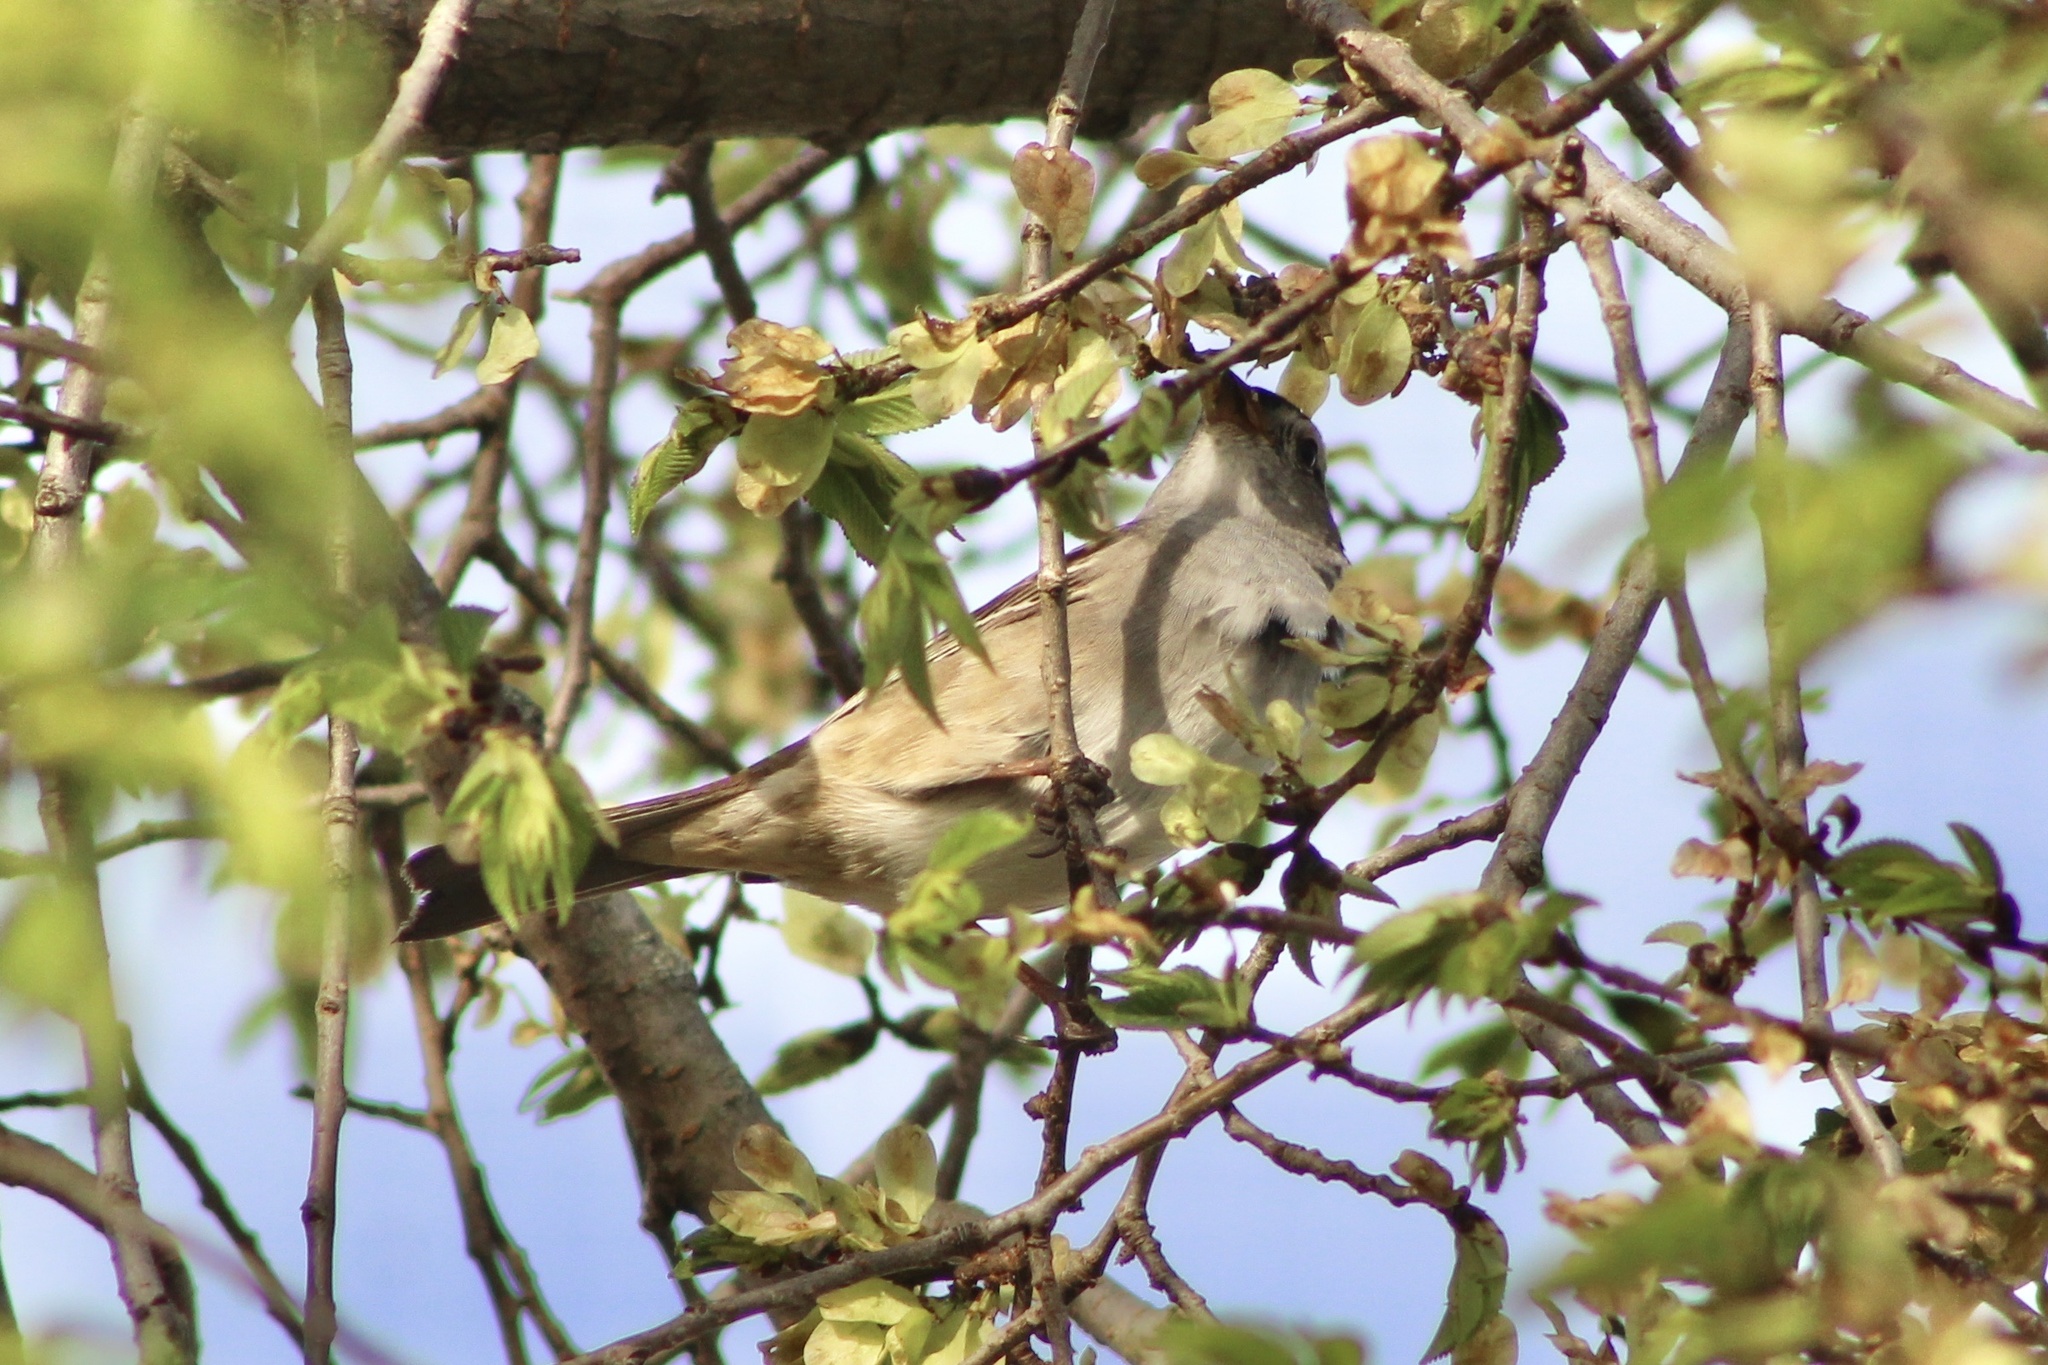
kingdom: Animalia
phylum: Chordata
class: Aves
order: Passeriformes
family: Passerellidae
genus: Zonotrichia
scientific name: Zonotrichia leucophrys
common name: White-crowned sparrow
